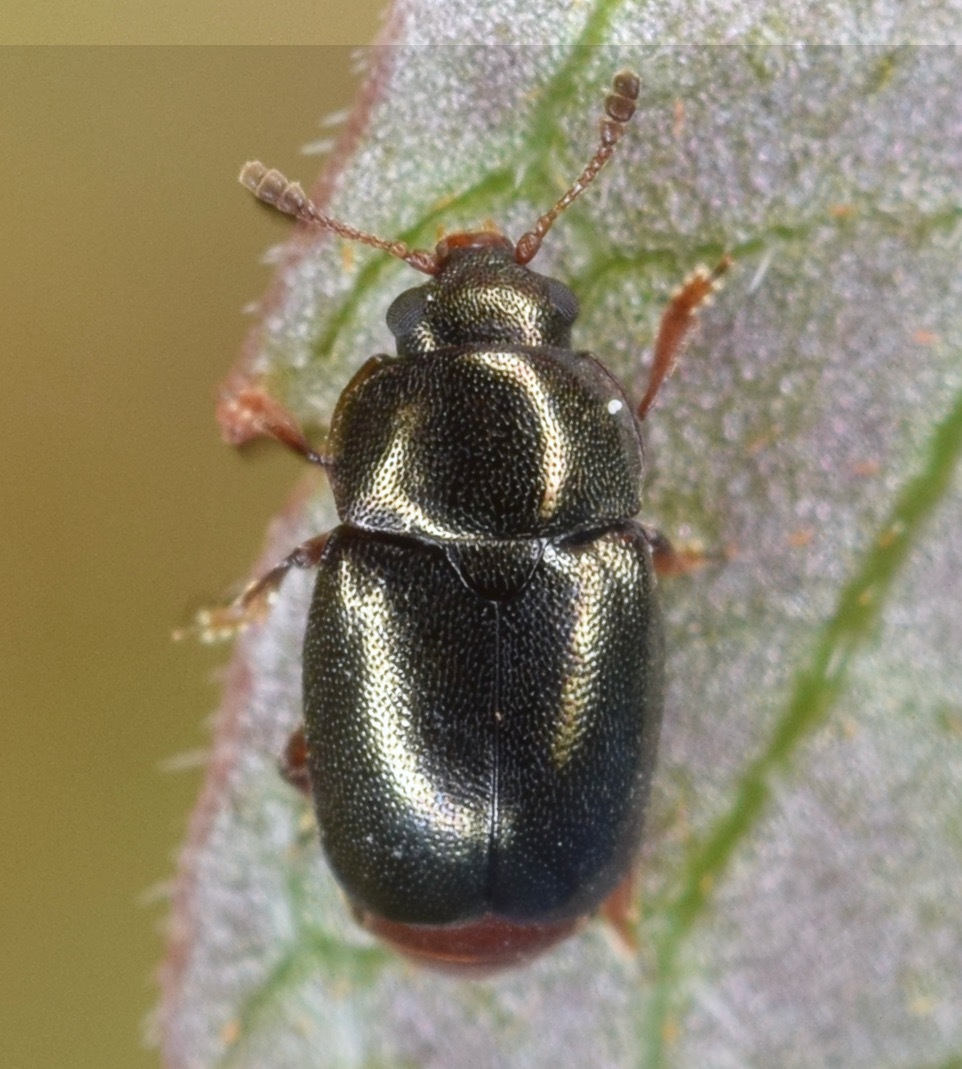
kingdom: Animalia
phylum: Arthropoda
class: Insecta
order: Coleoptera
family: Kateretidae
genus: Heterhelus
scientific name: Heterhelus abdominalis
